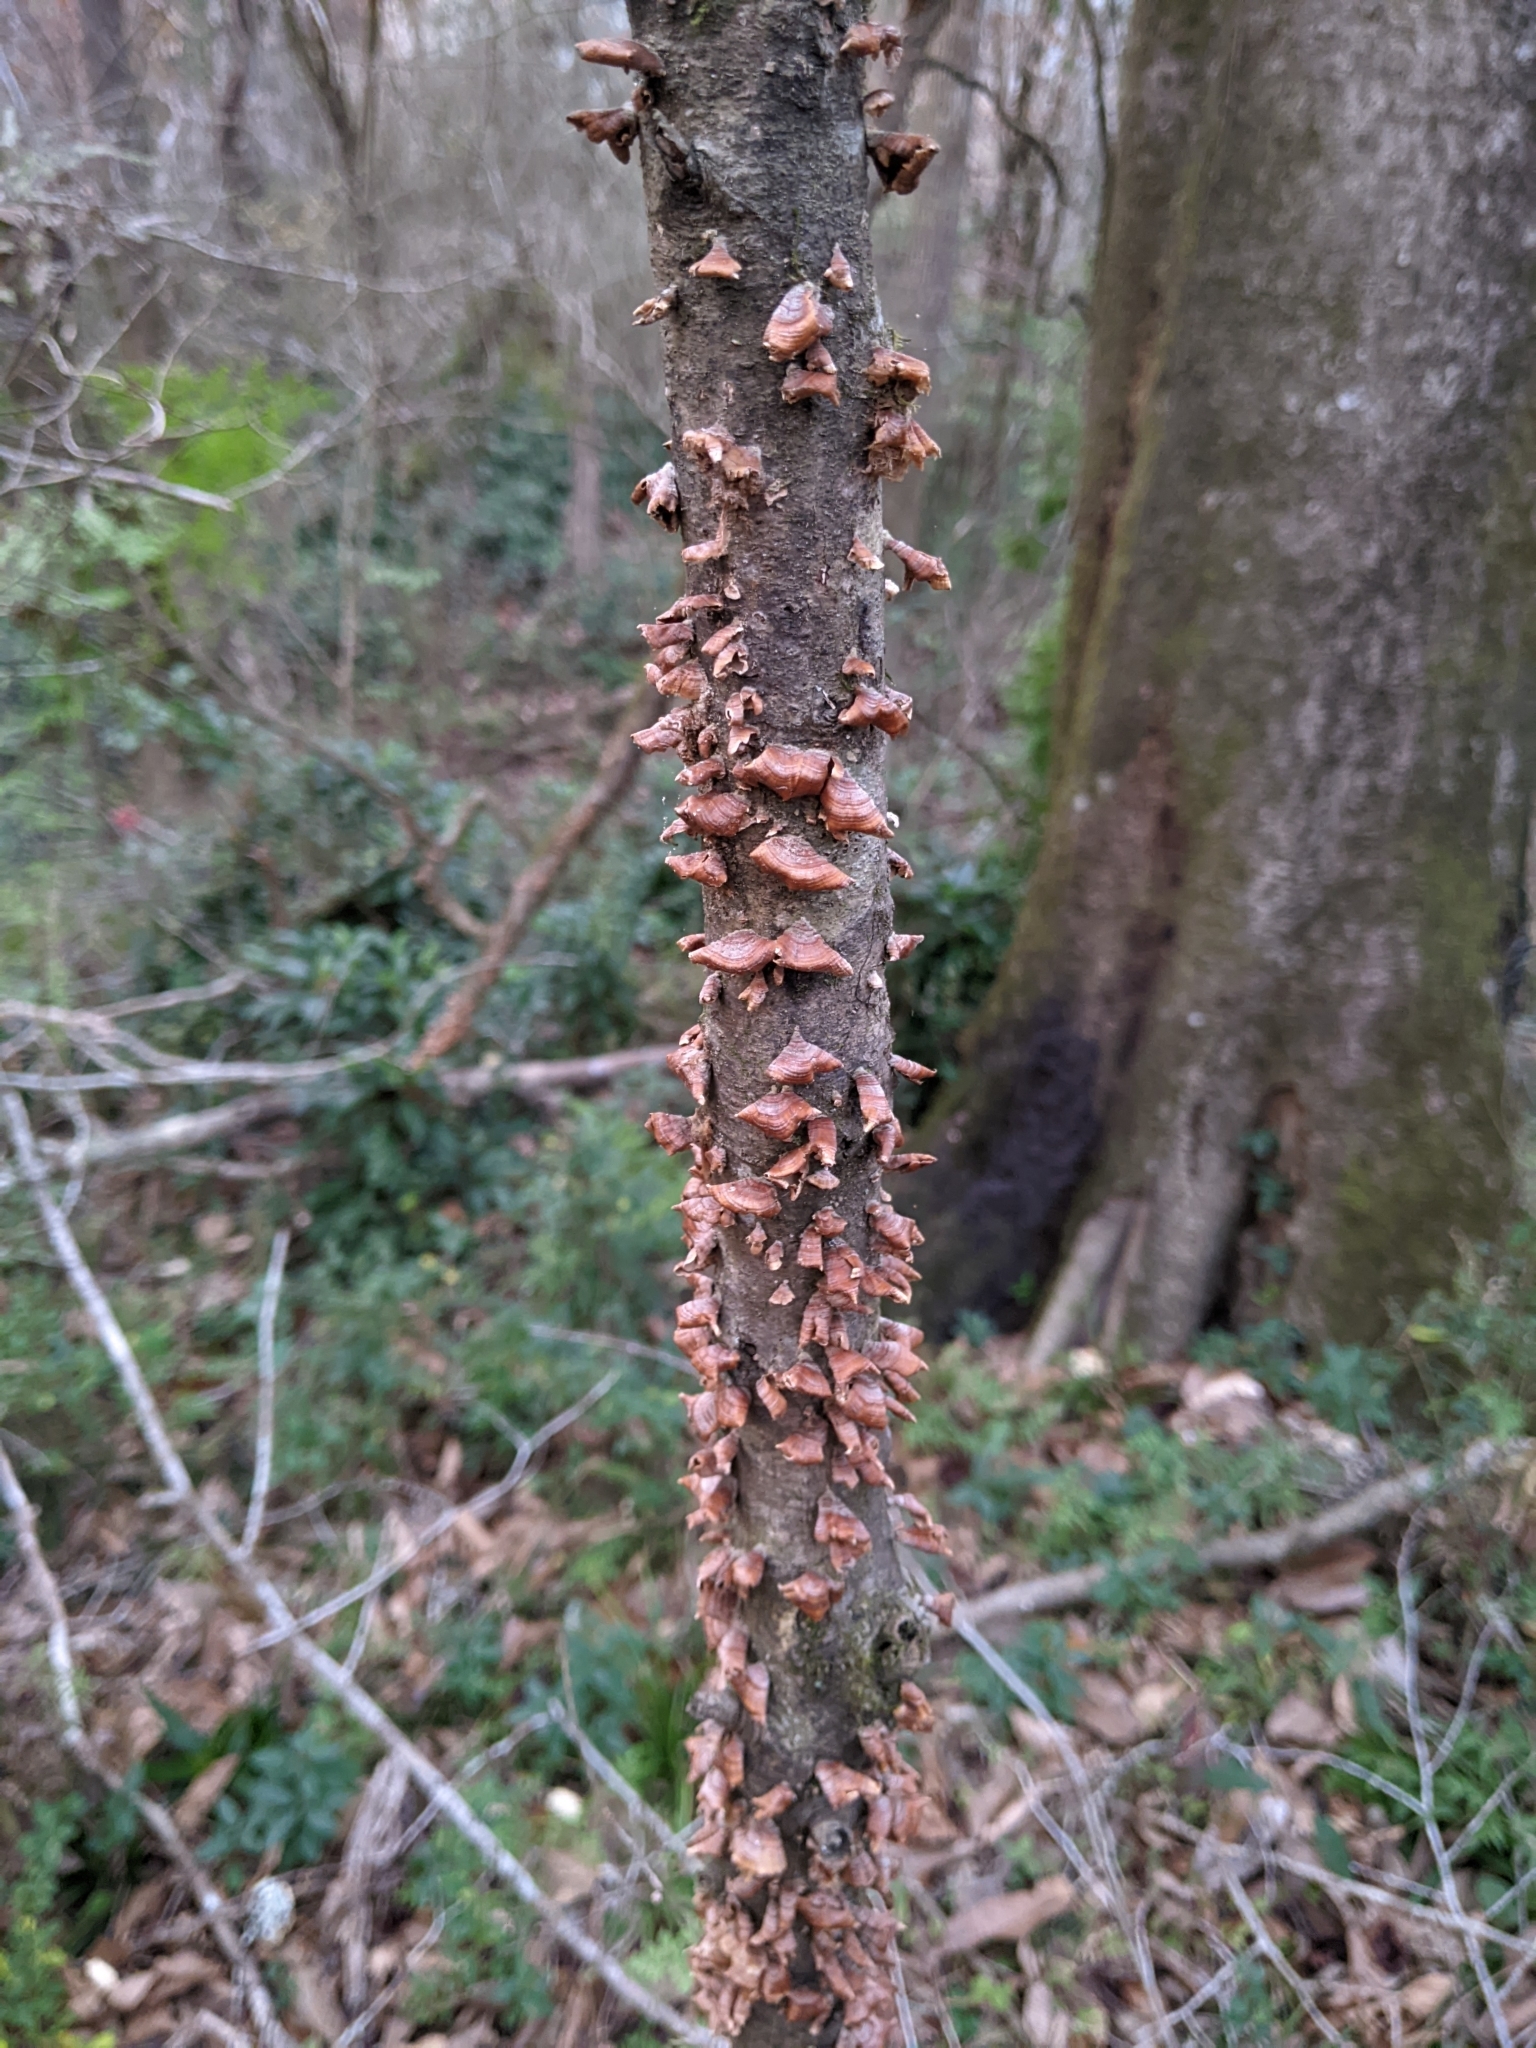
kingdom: Fungi
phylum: Basidiomycota
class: Agaricomycetes
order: Russulales
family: Stereaceae
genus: Stereum
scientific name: Stereum complicatum
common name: Crowded parchment
